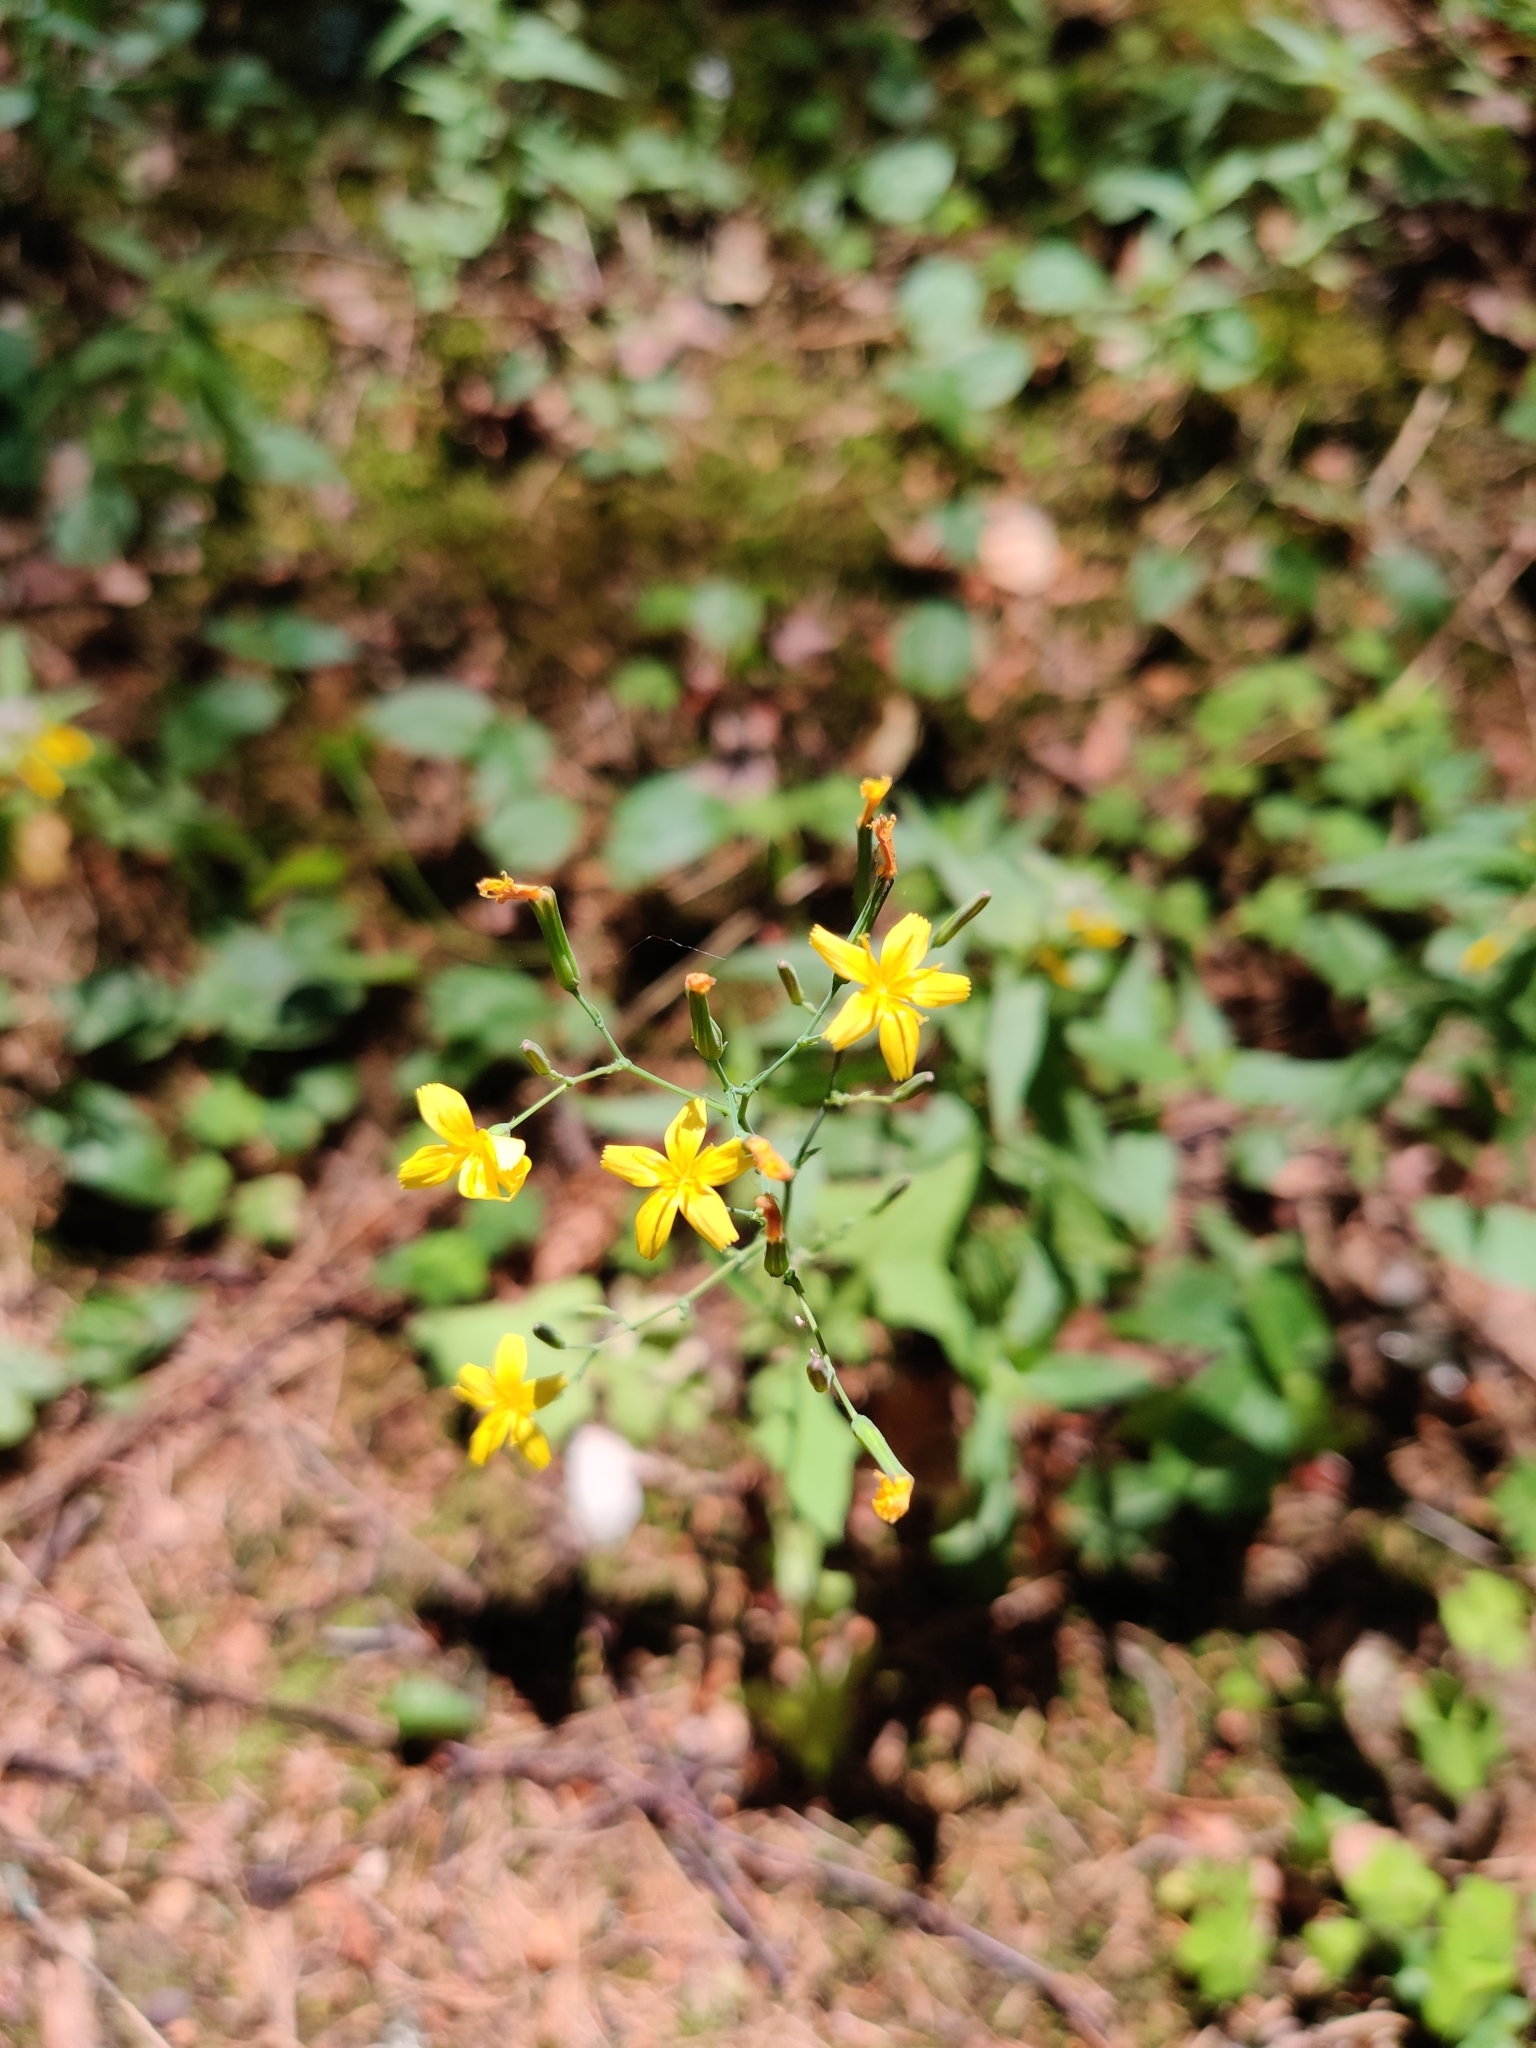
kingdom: Plantae
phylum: Tracheophyta
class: Magnoliopsida
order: Asterales
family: Asteraceae
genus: Mycelis
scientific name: Mycelis muralis
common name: Wall lettuce
